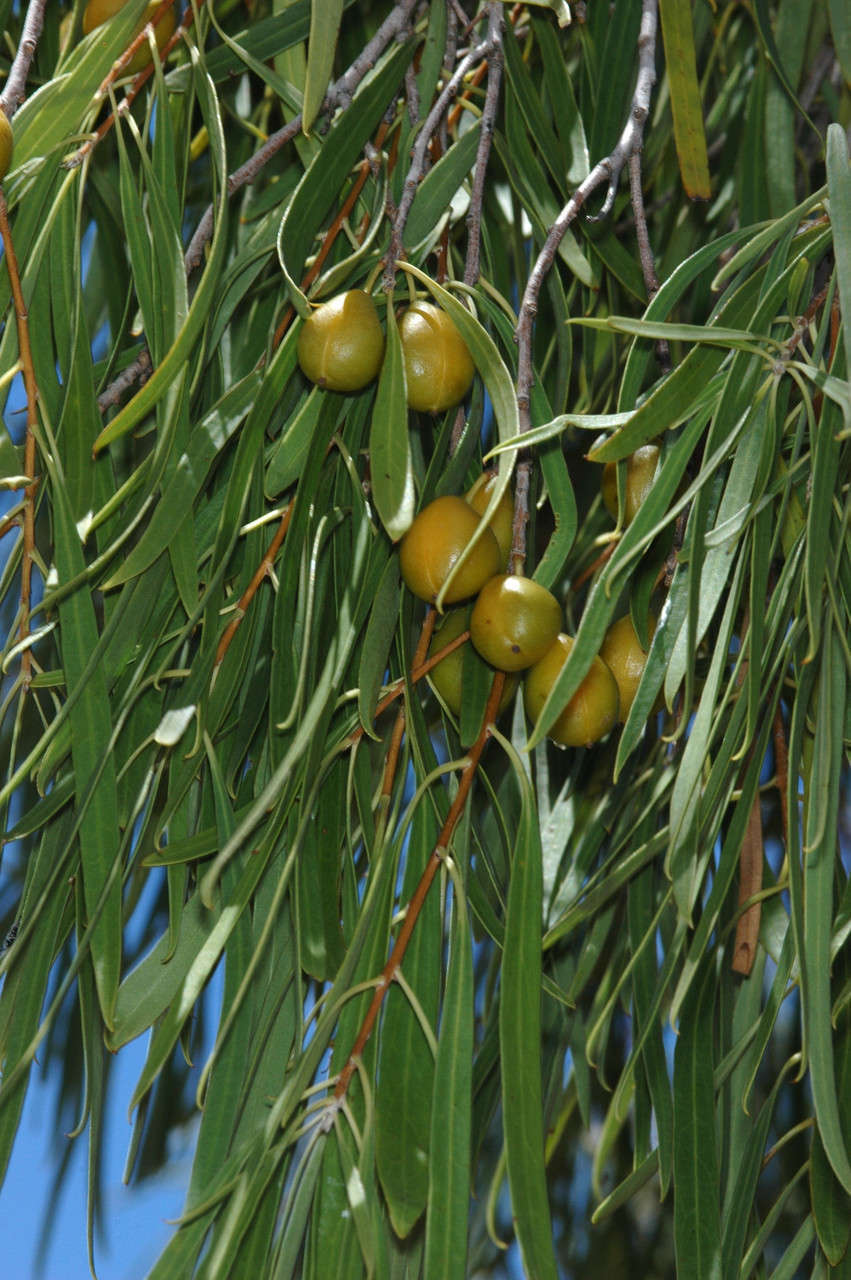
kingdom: Plantae
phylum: Tracheophyta
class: Magnoliopsida
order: Apiales
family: Pittosporaceae
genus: Pittosporum
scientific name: Pittosporum angustifolium
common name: Weeping pittosporum
